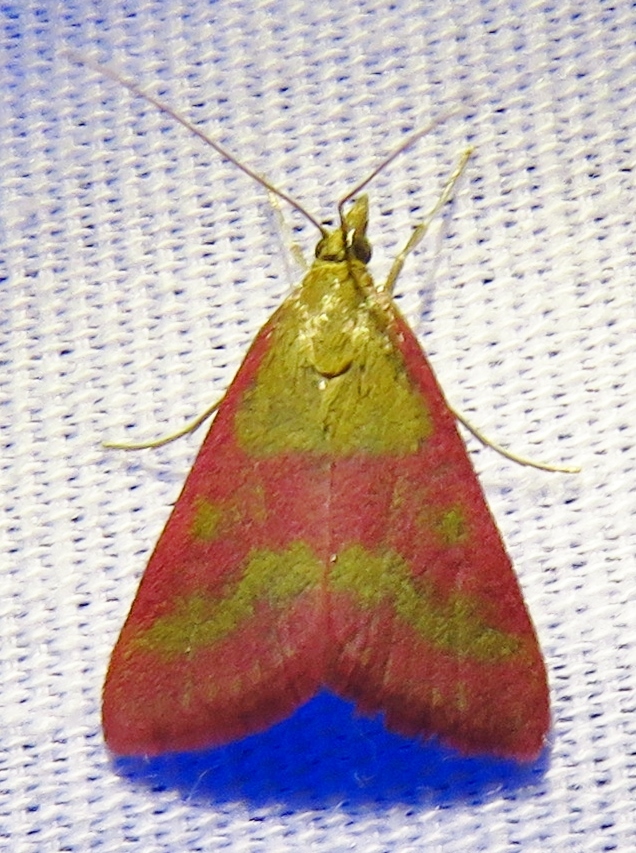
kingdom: Animalia
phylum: Arthropoda
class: Insecta
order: Lepidoptera
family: Crambidae
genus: Pyrausta
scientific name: Pyrausta laticlavia
